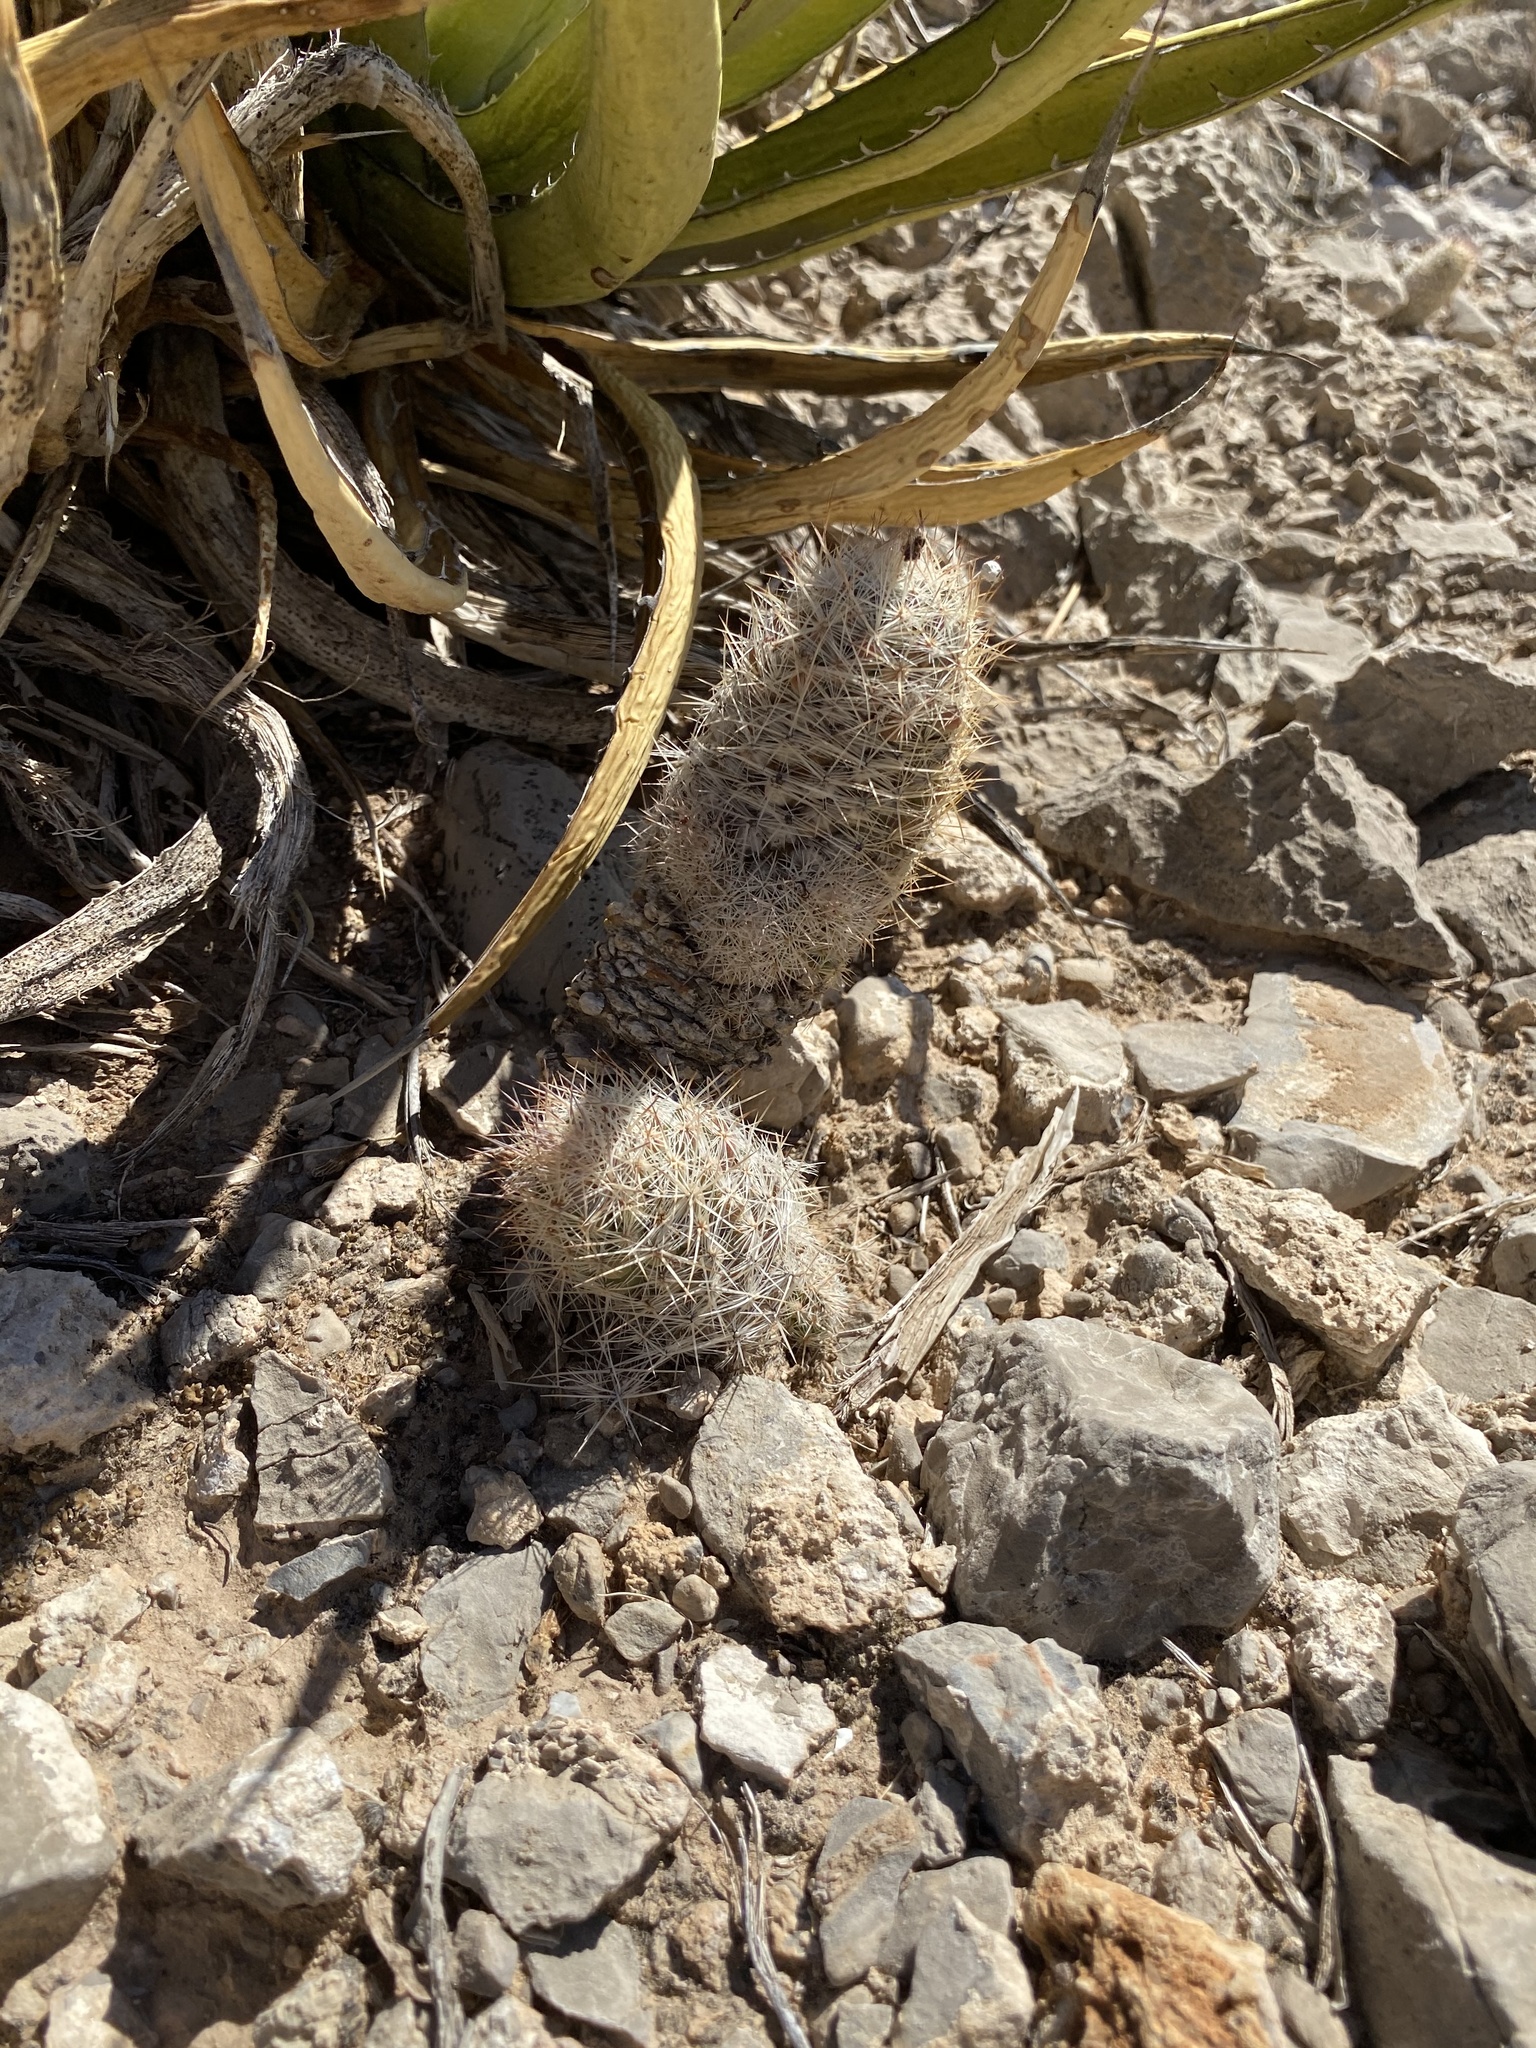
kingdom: Plantae
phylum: Tracheophyta
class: Magnoliopsida
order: Caryophyllales
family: Cactaceae
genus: Pelecyphora
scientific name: Pelecyphora tuberculosa
